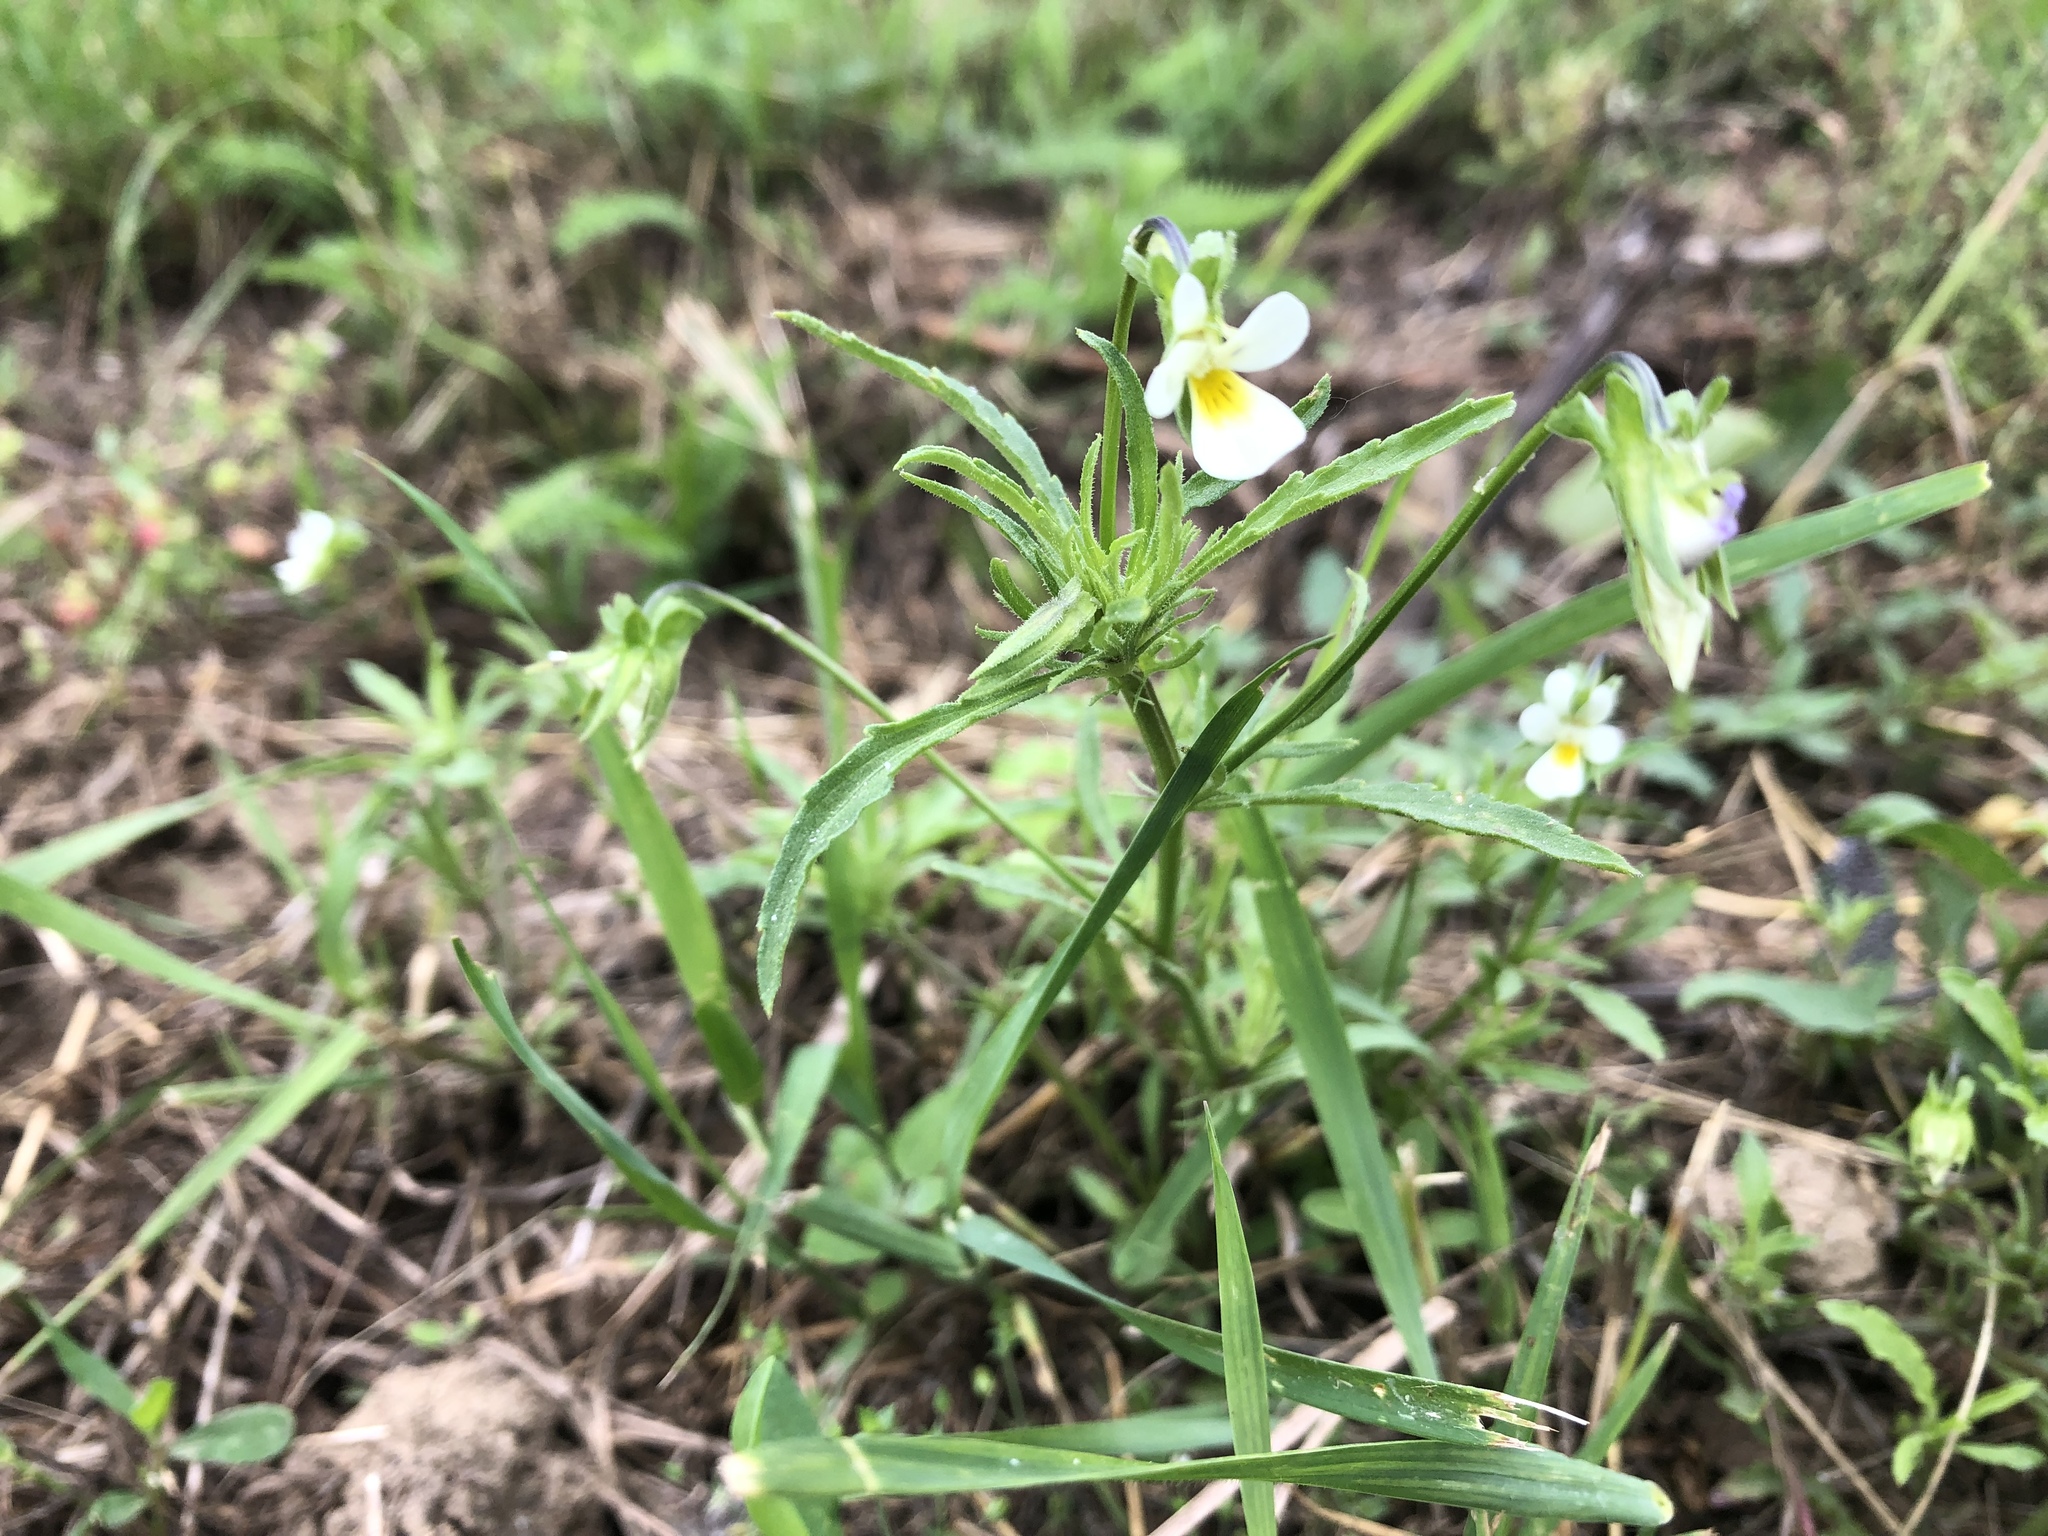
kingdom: Plantae
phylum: Tracheophyta
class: Magnoliopsida
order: Malpighiales
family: Violaceae
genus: Viola
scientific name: Viola arvensis
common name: Field pansy
